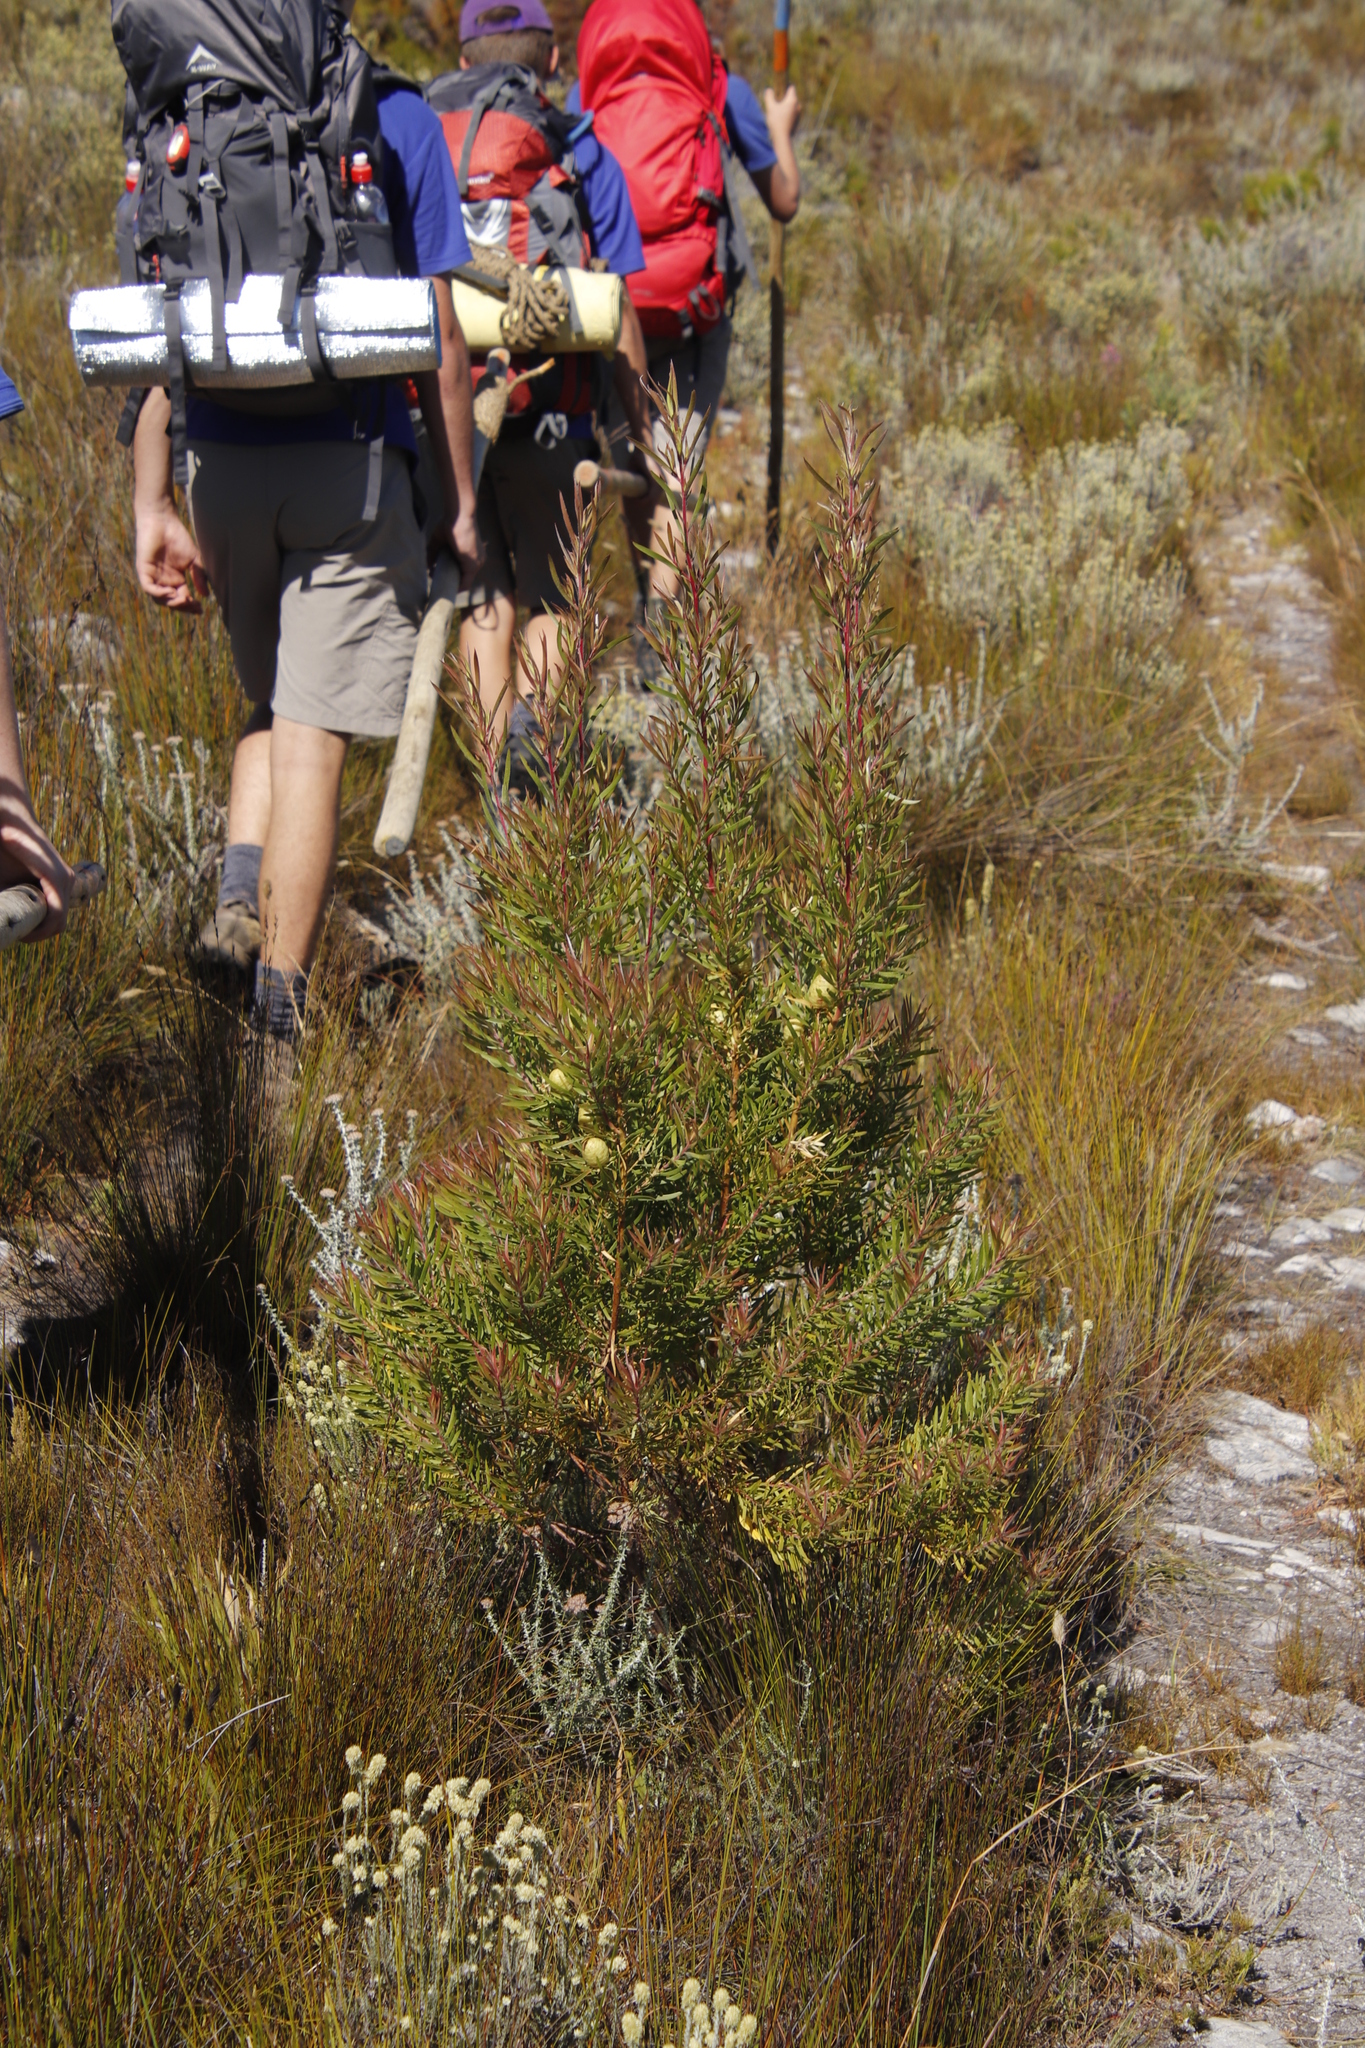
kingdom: Plantae
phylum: Tracheophyta
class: Magnoliopsida
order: Proteales
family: Proteaceae
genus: Leucadendron
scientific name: Leucadendron salicifolium
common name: Common stream conebush
